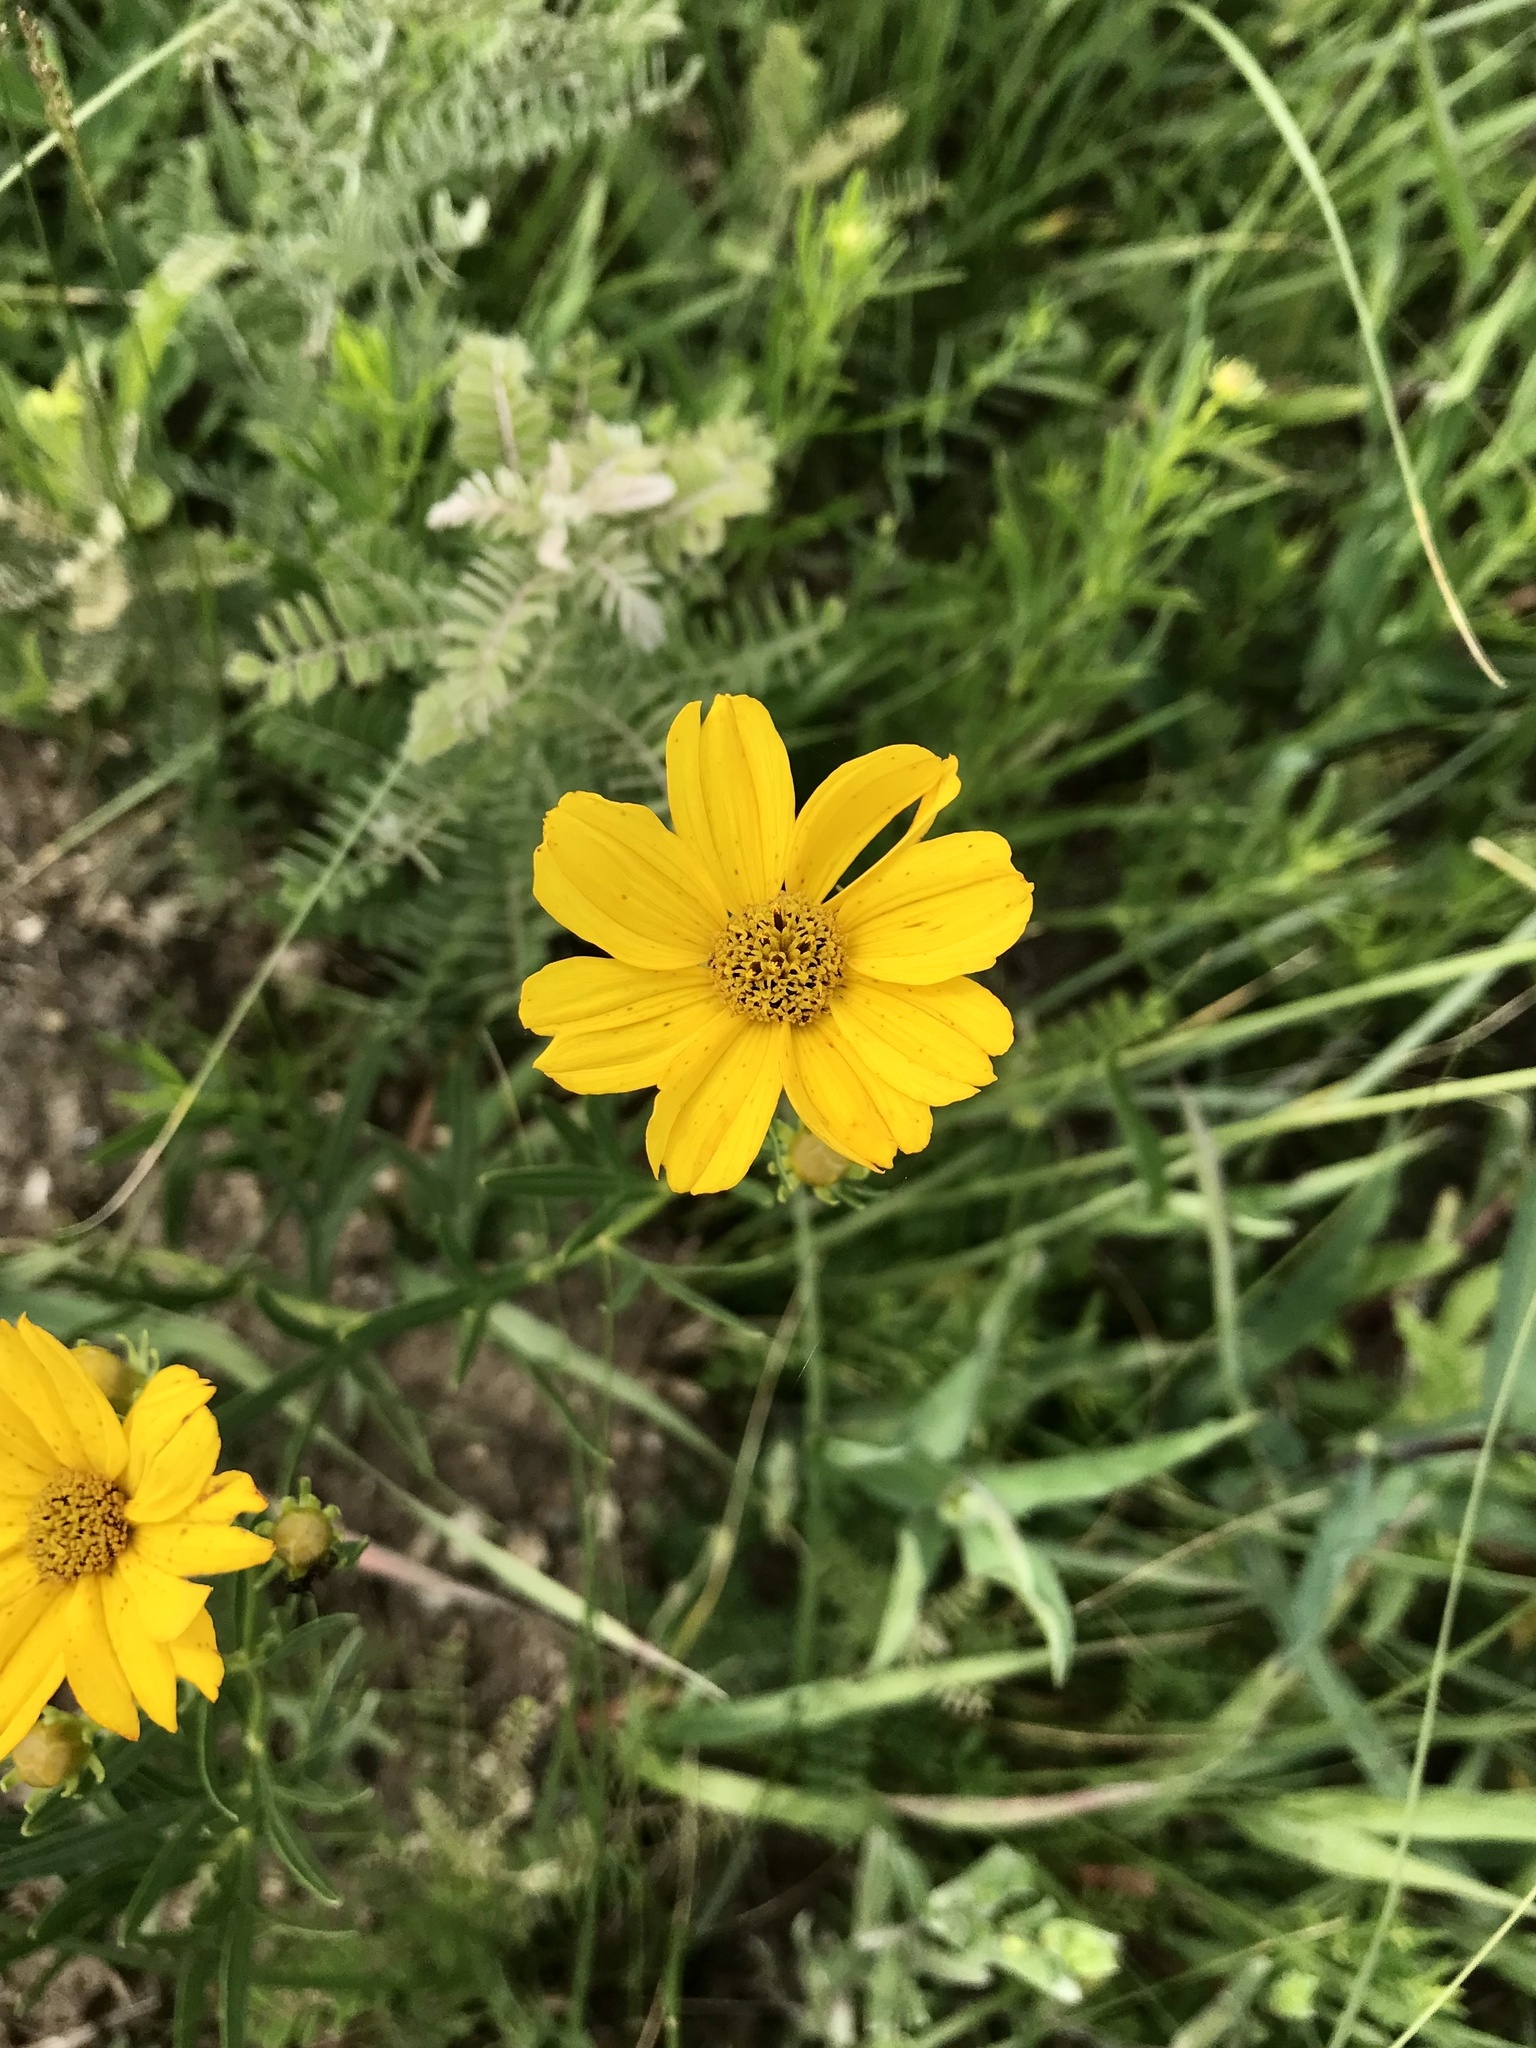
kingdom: Plantae
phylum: Tracheophyta
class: Magnoliopsida
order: Asterales
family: Asteraceae
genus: Coreopsis
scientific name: Coreopsis palmata
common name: Prairie coreopsis
